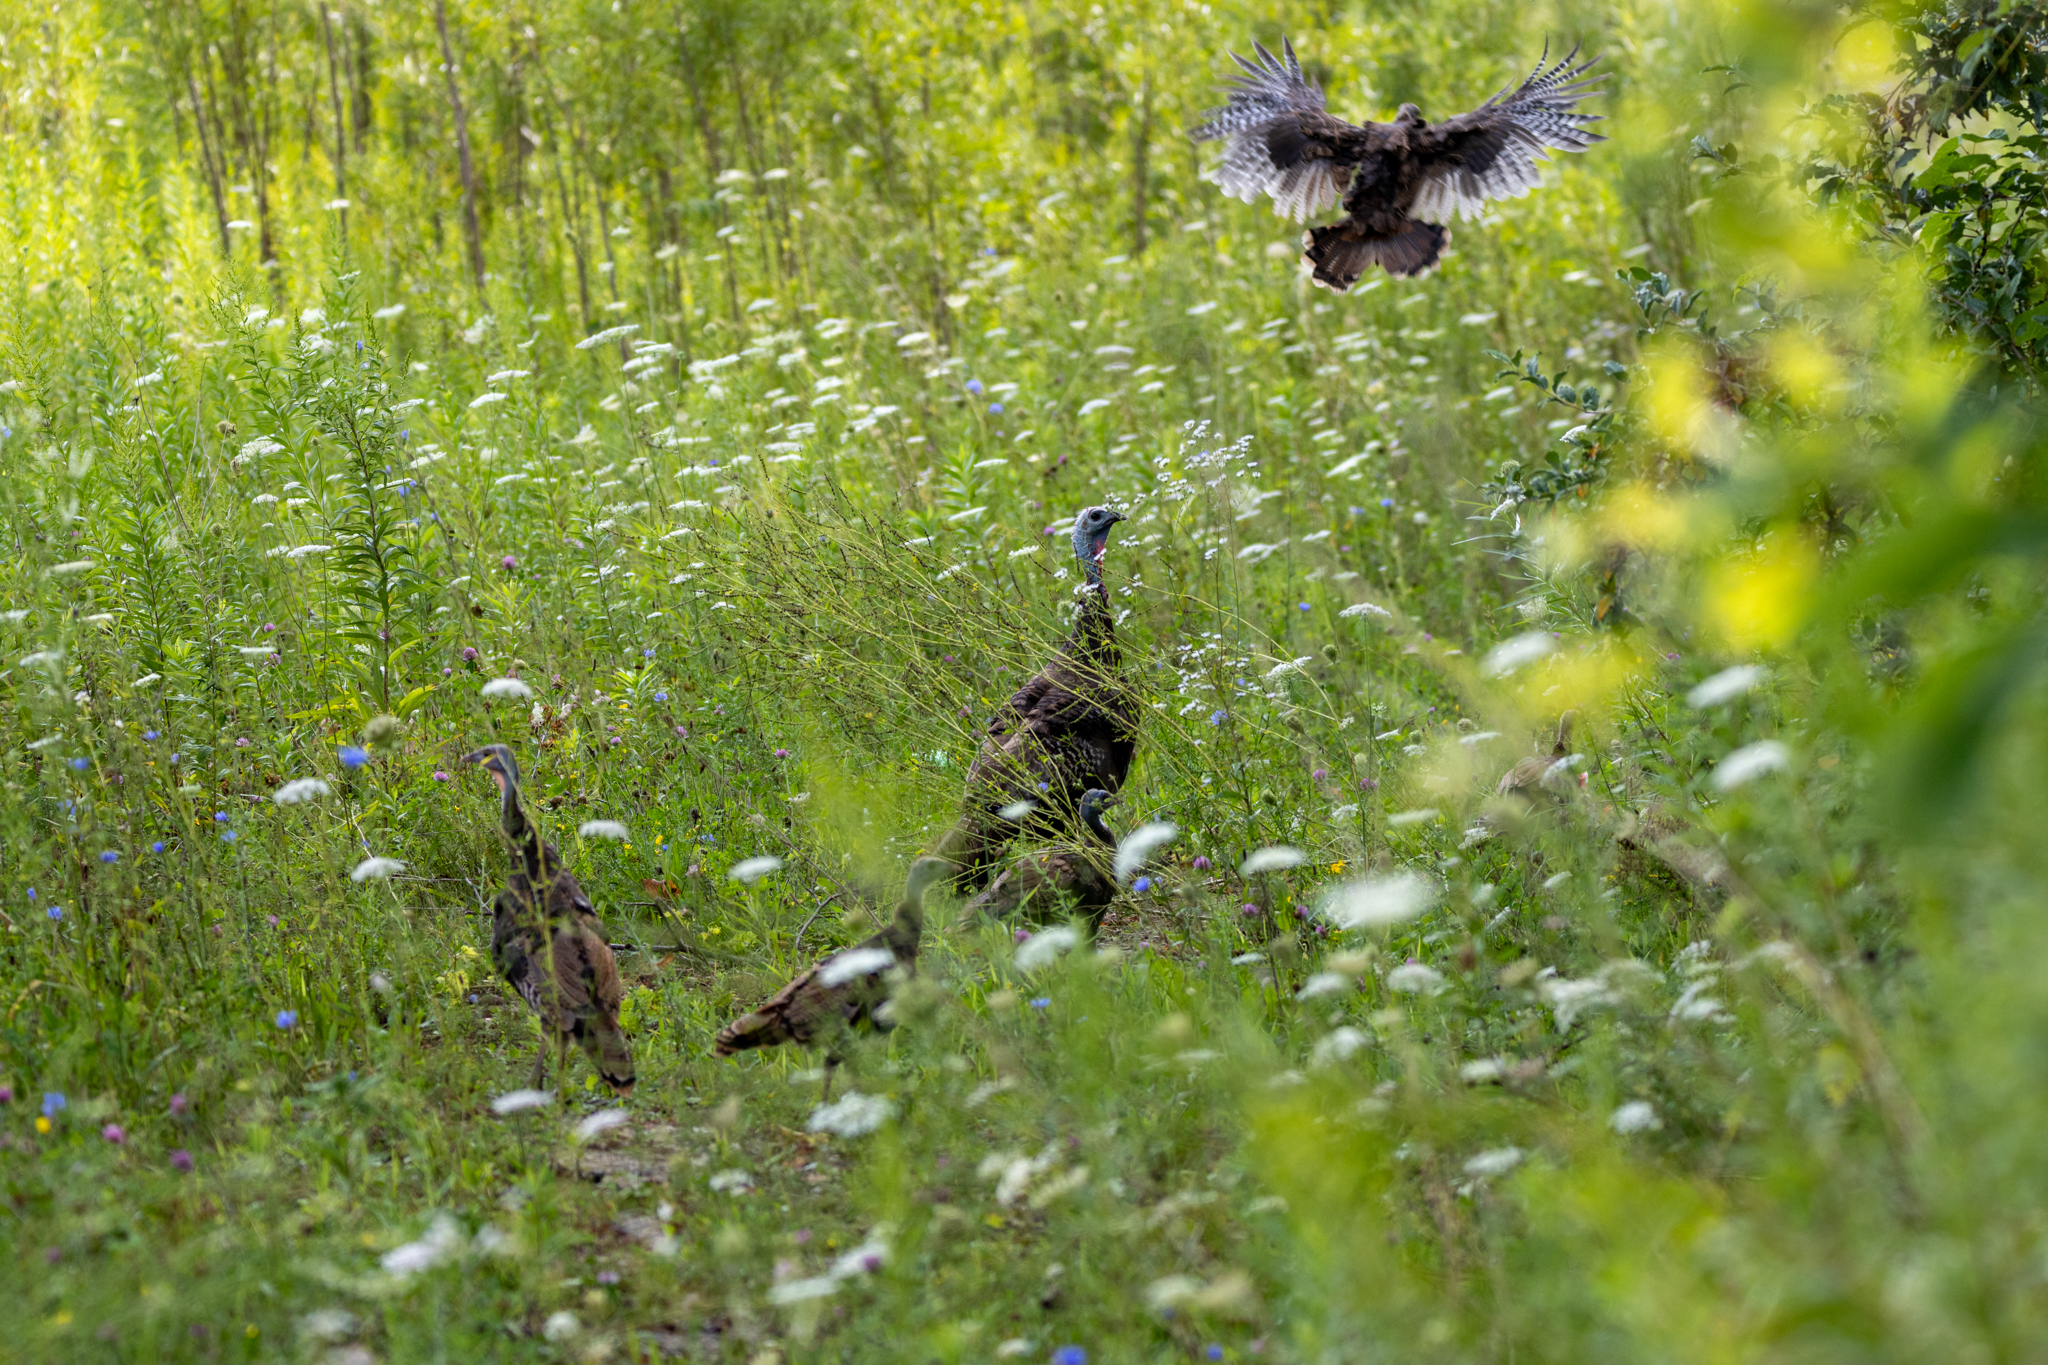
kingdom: Animalia
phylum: Chordata
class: Aves
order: Galliformes
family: Phasianidae
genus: Meleagris
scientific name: Meleagris gallopavo
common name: Wild turkey
